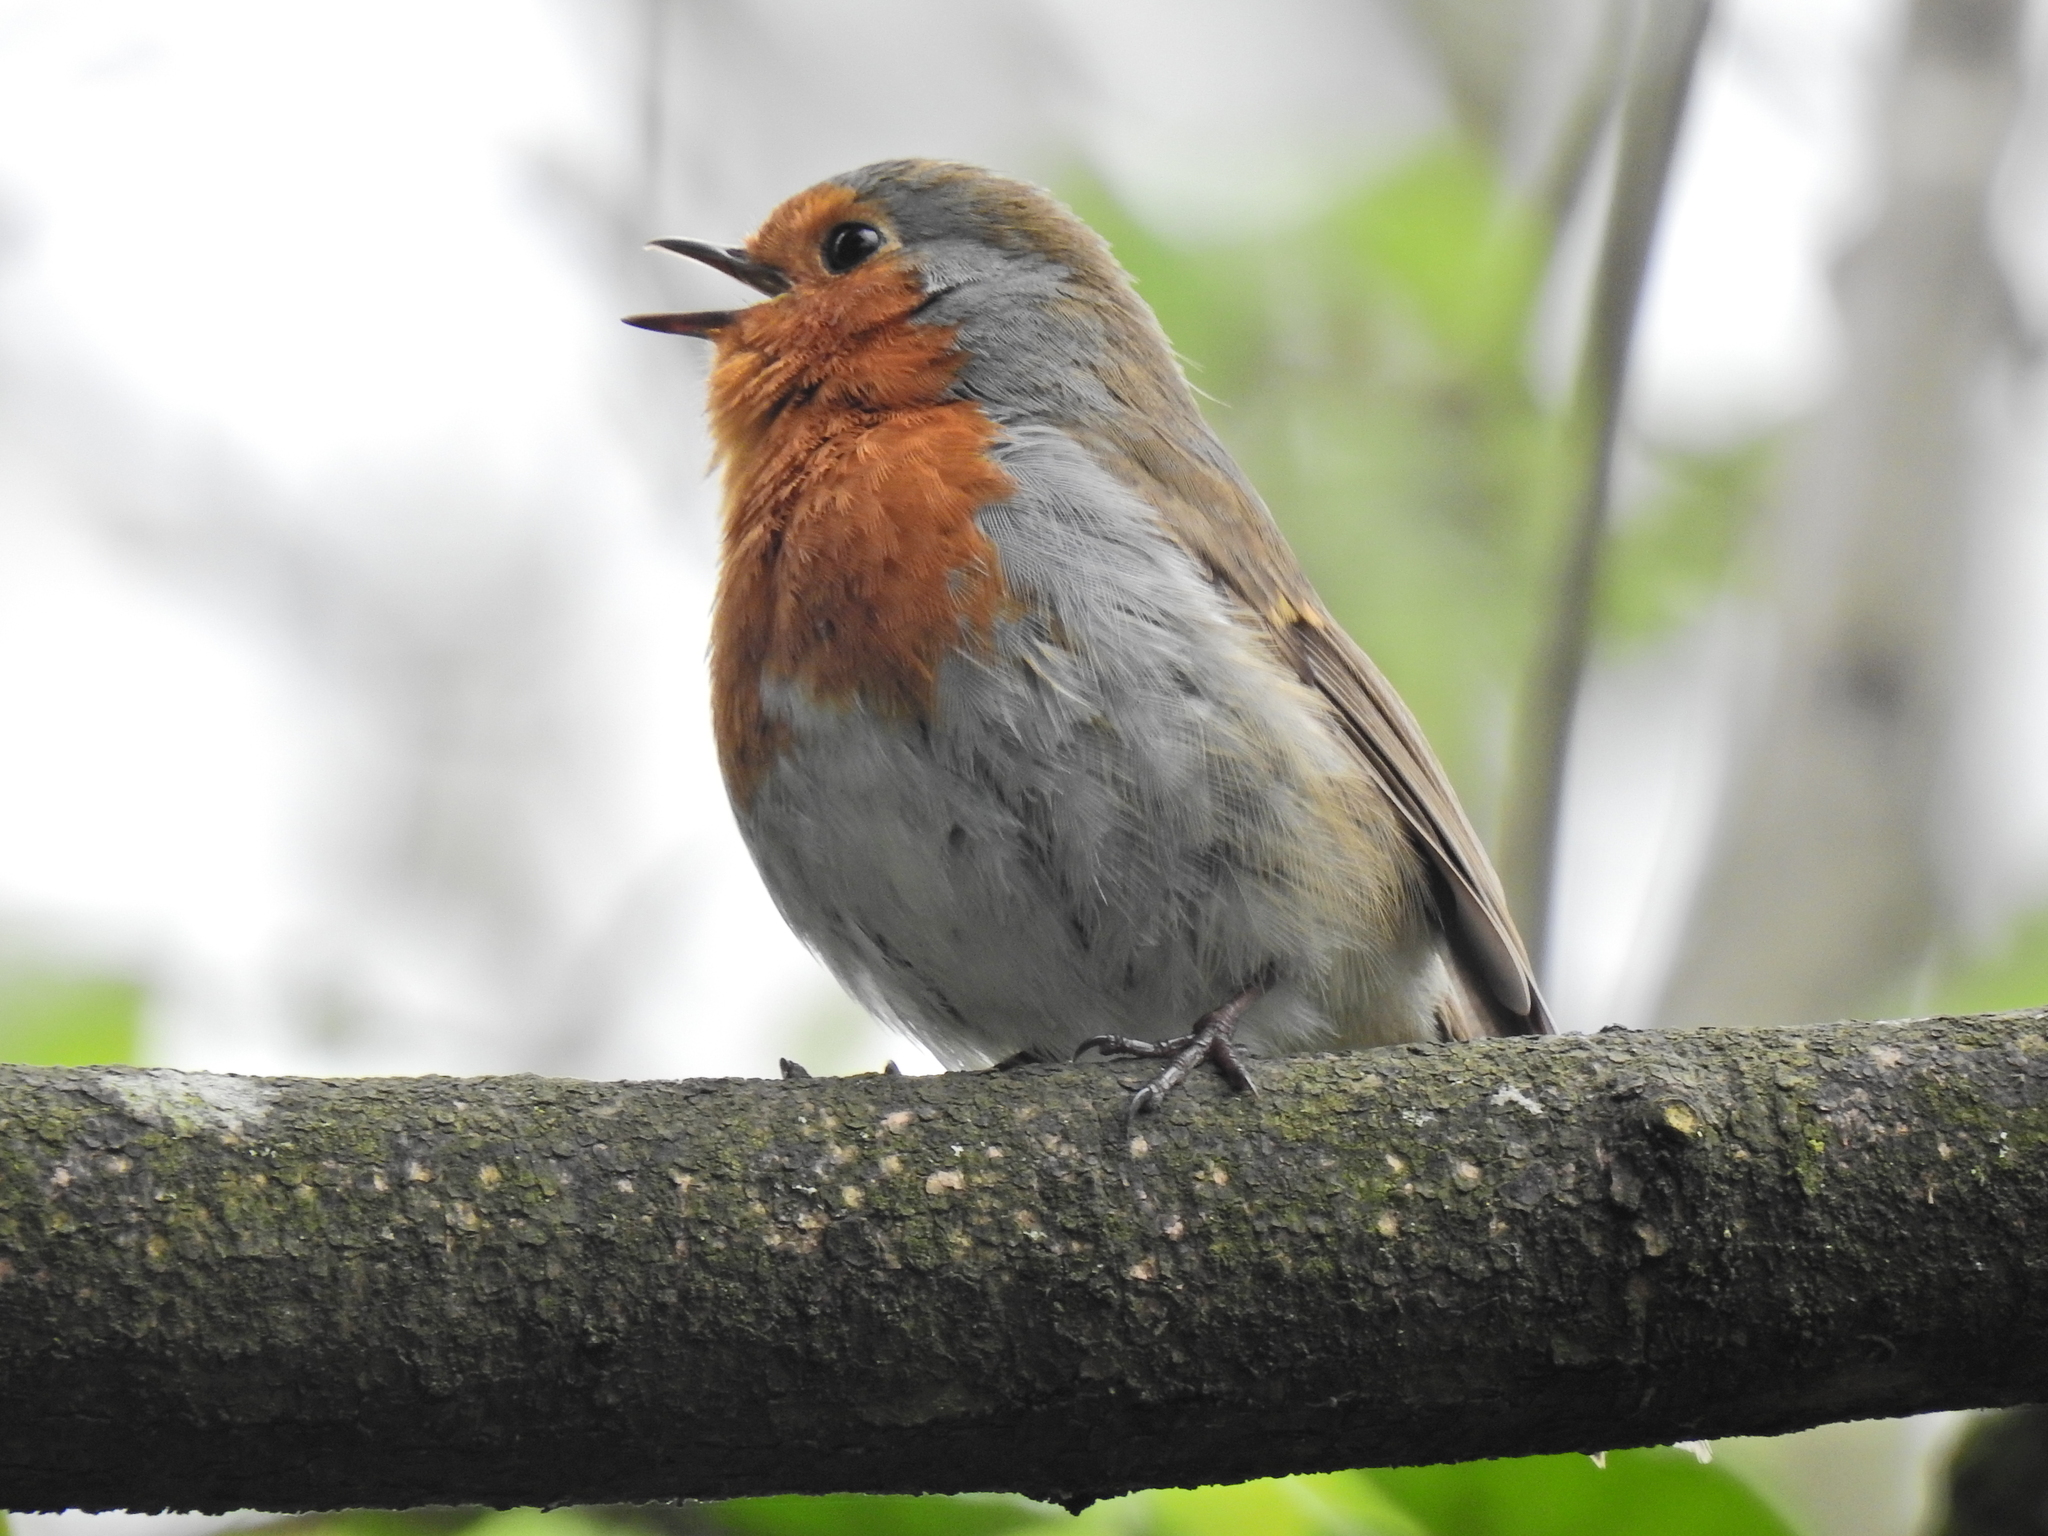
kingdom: Animalia
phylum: Chordata
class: Aves
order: Passeriformes
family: Muscicapidae
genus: Erithacus
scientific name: Erithacus rubecula
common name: European robin
